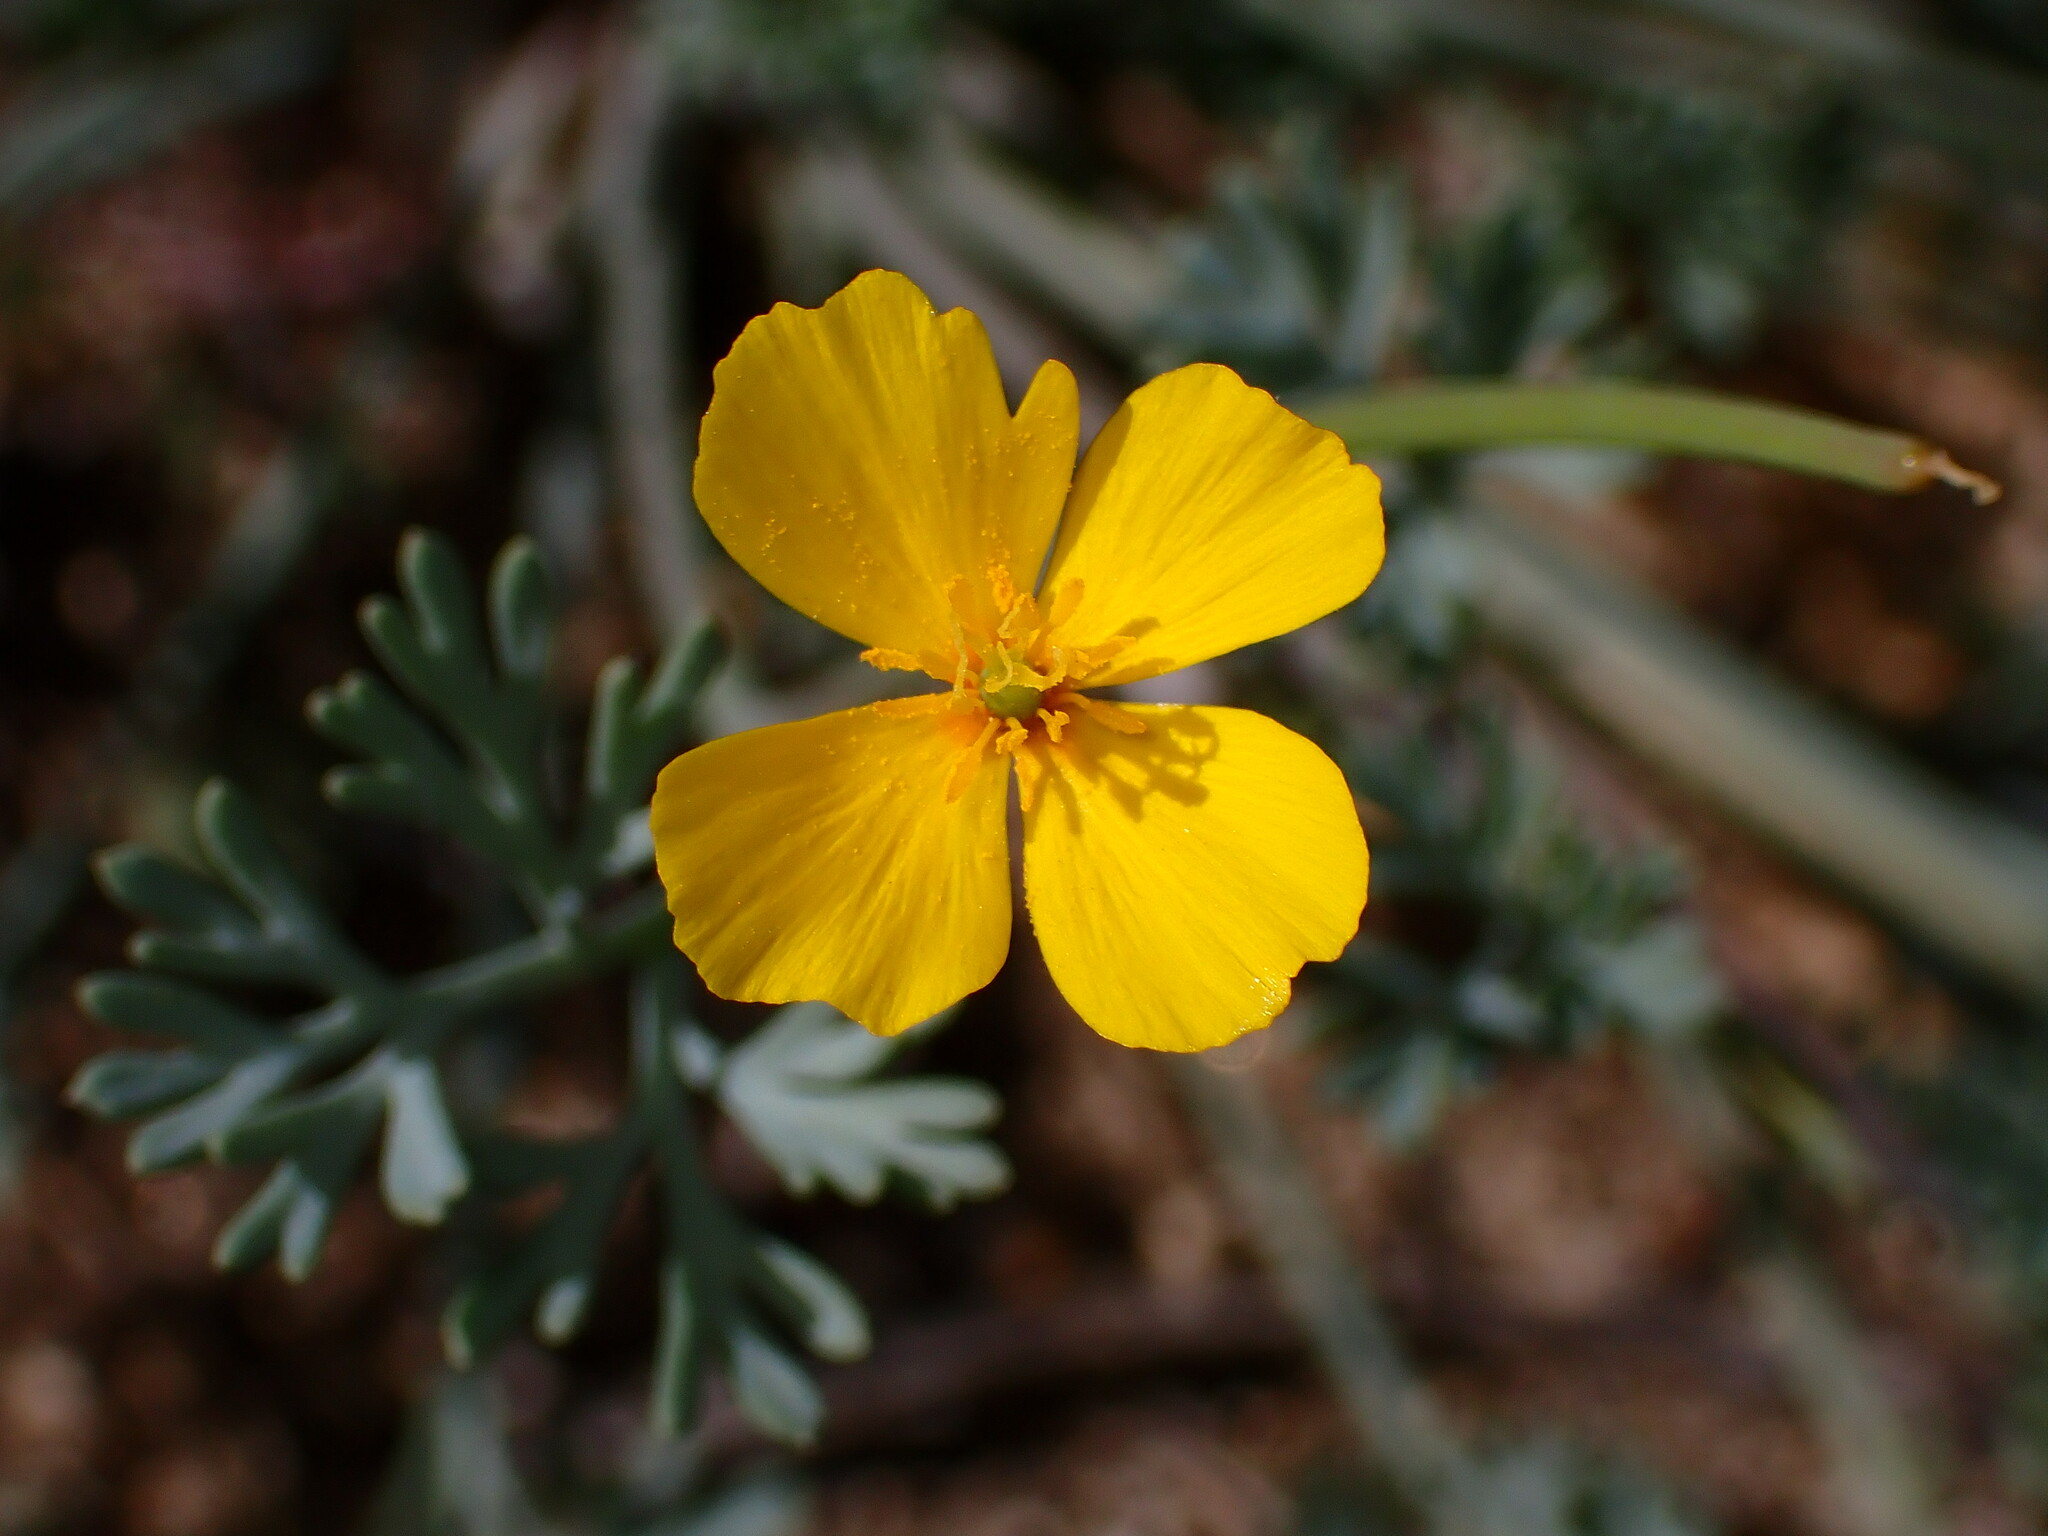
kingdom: Plantae
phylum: Tracheophyta
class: Magnoliopsida
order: Ranunculales
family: Papaveraceae
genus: Eschscholzia
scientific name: Eschscholzia minutiflora
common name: Small-flower california-poppy
